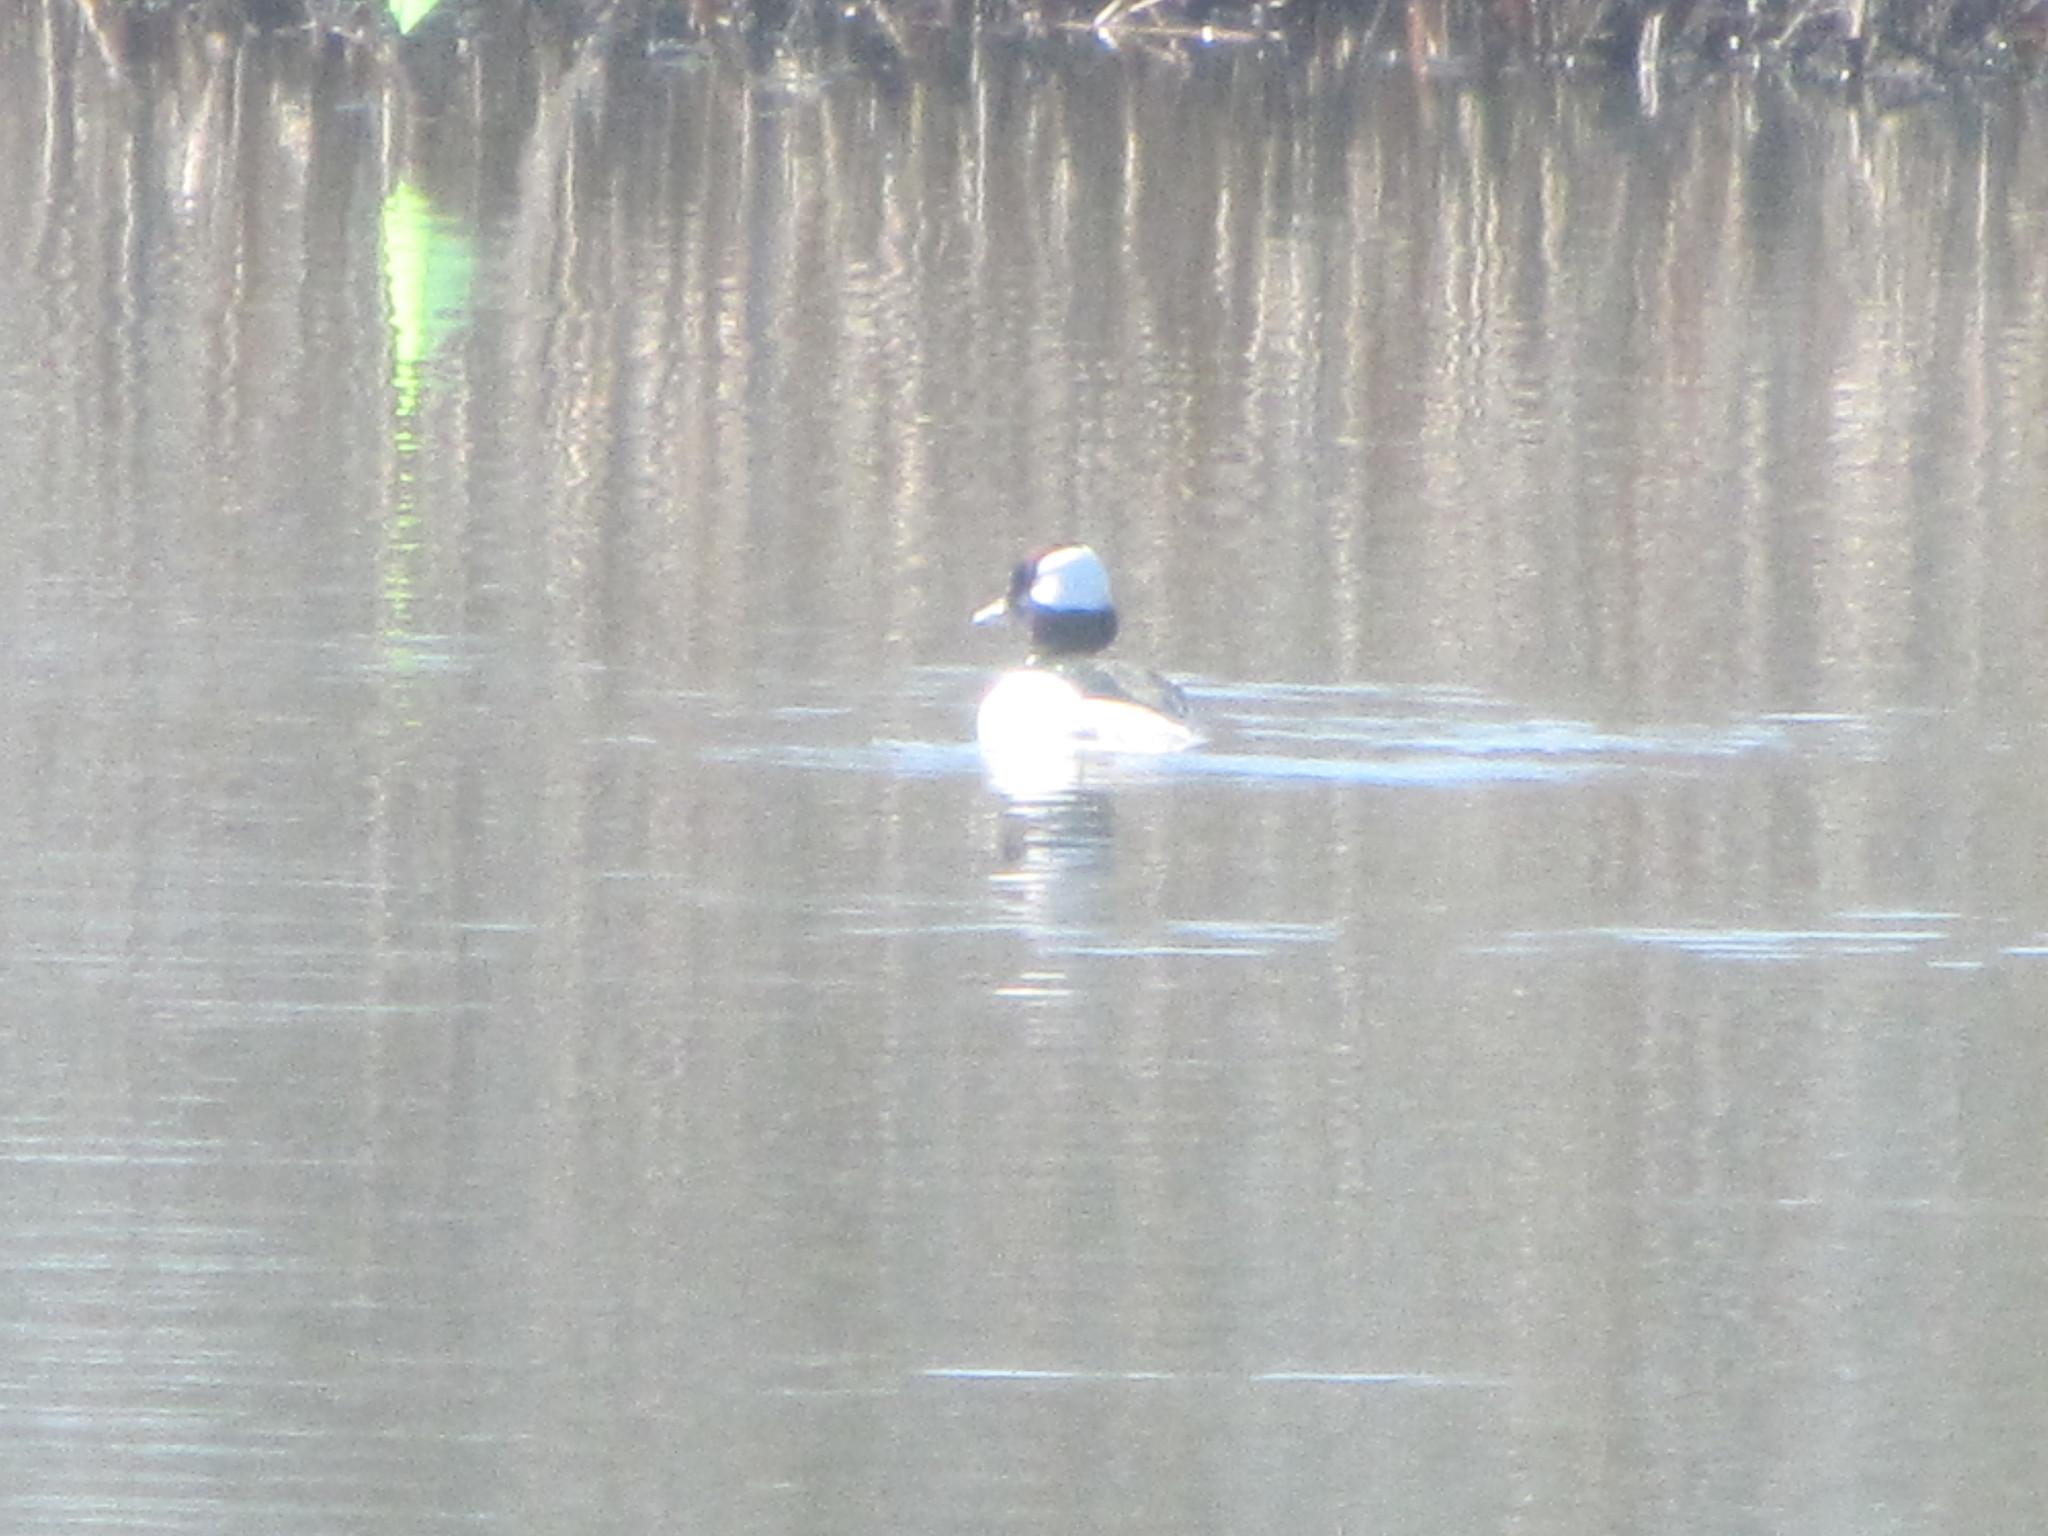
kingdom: Animalia
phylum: Chordata
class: Aves
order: Anseriformes
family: Anatidae
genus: Bucephala
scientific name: Bucephala albeola
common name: Bufflehead
